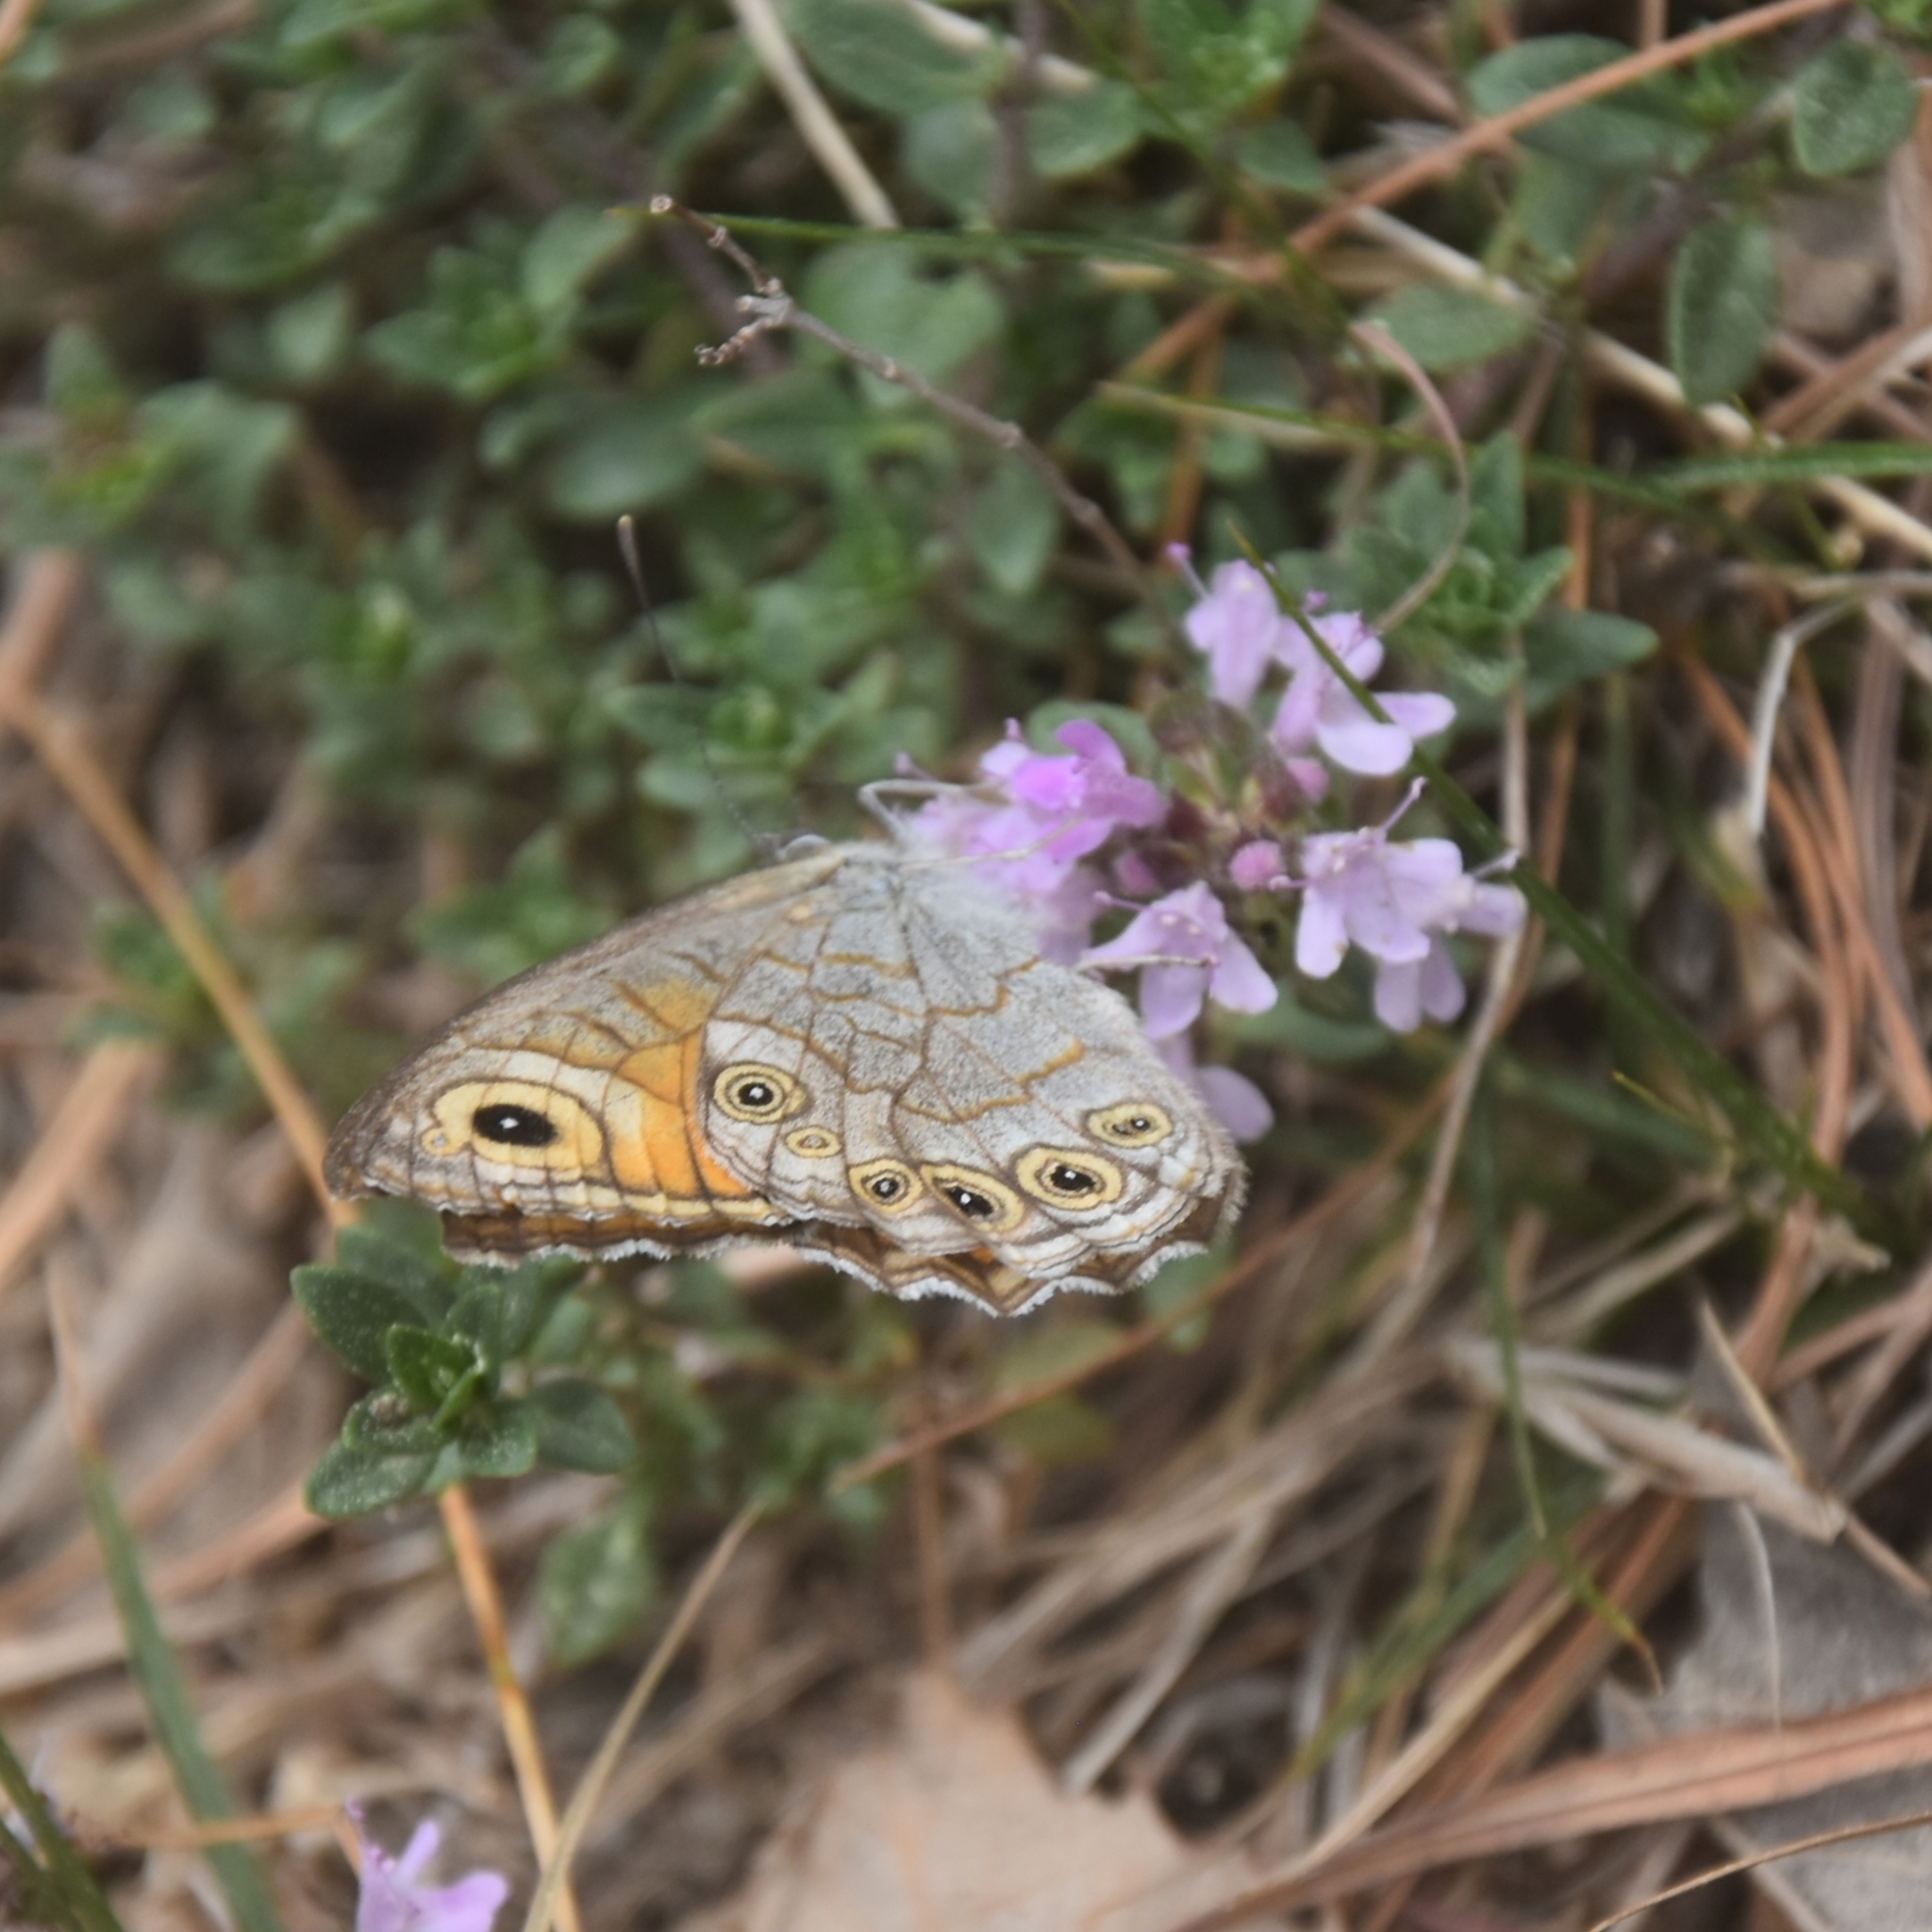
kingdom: Animalia
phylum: Arthropoda
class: Insecta
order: Lepidoptera
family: Nymphalidae
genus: Pararge
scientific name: Pararge Lasiommata schakra
